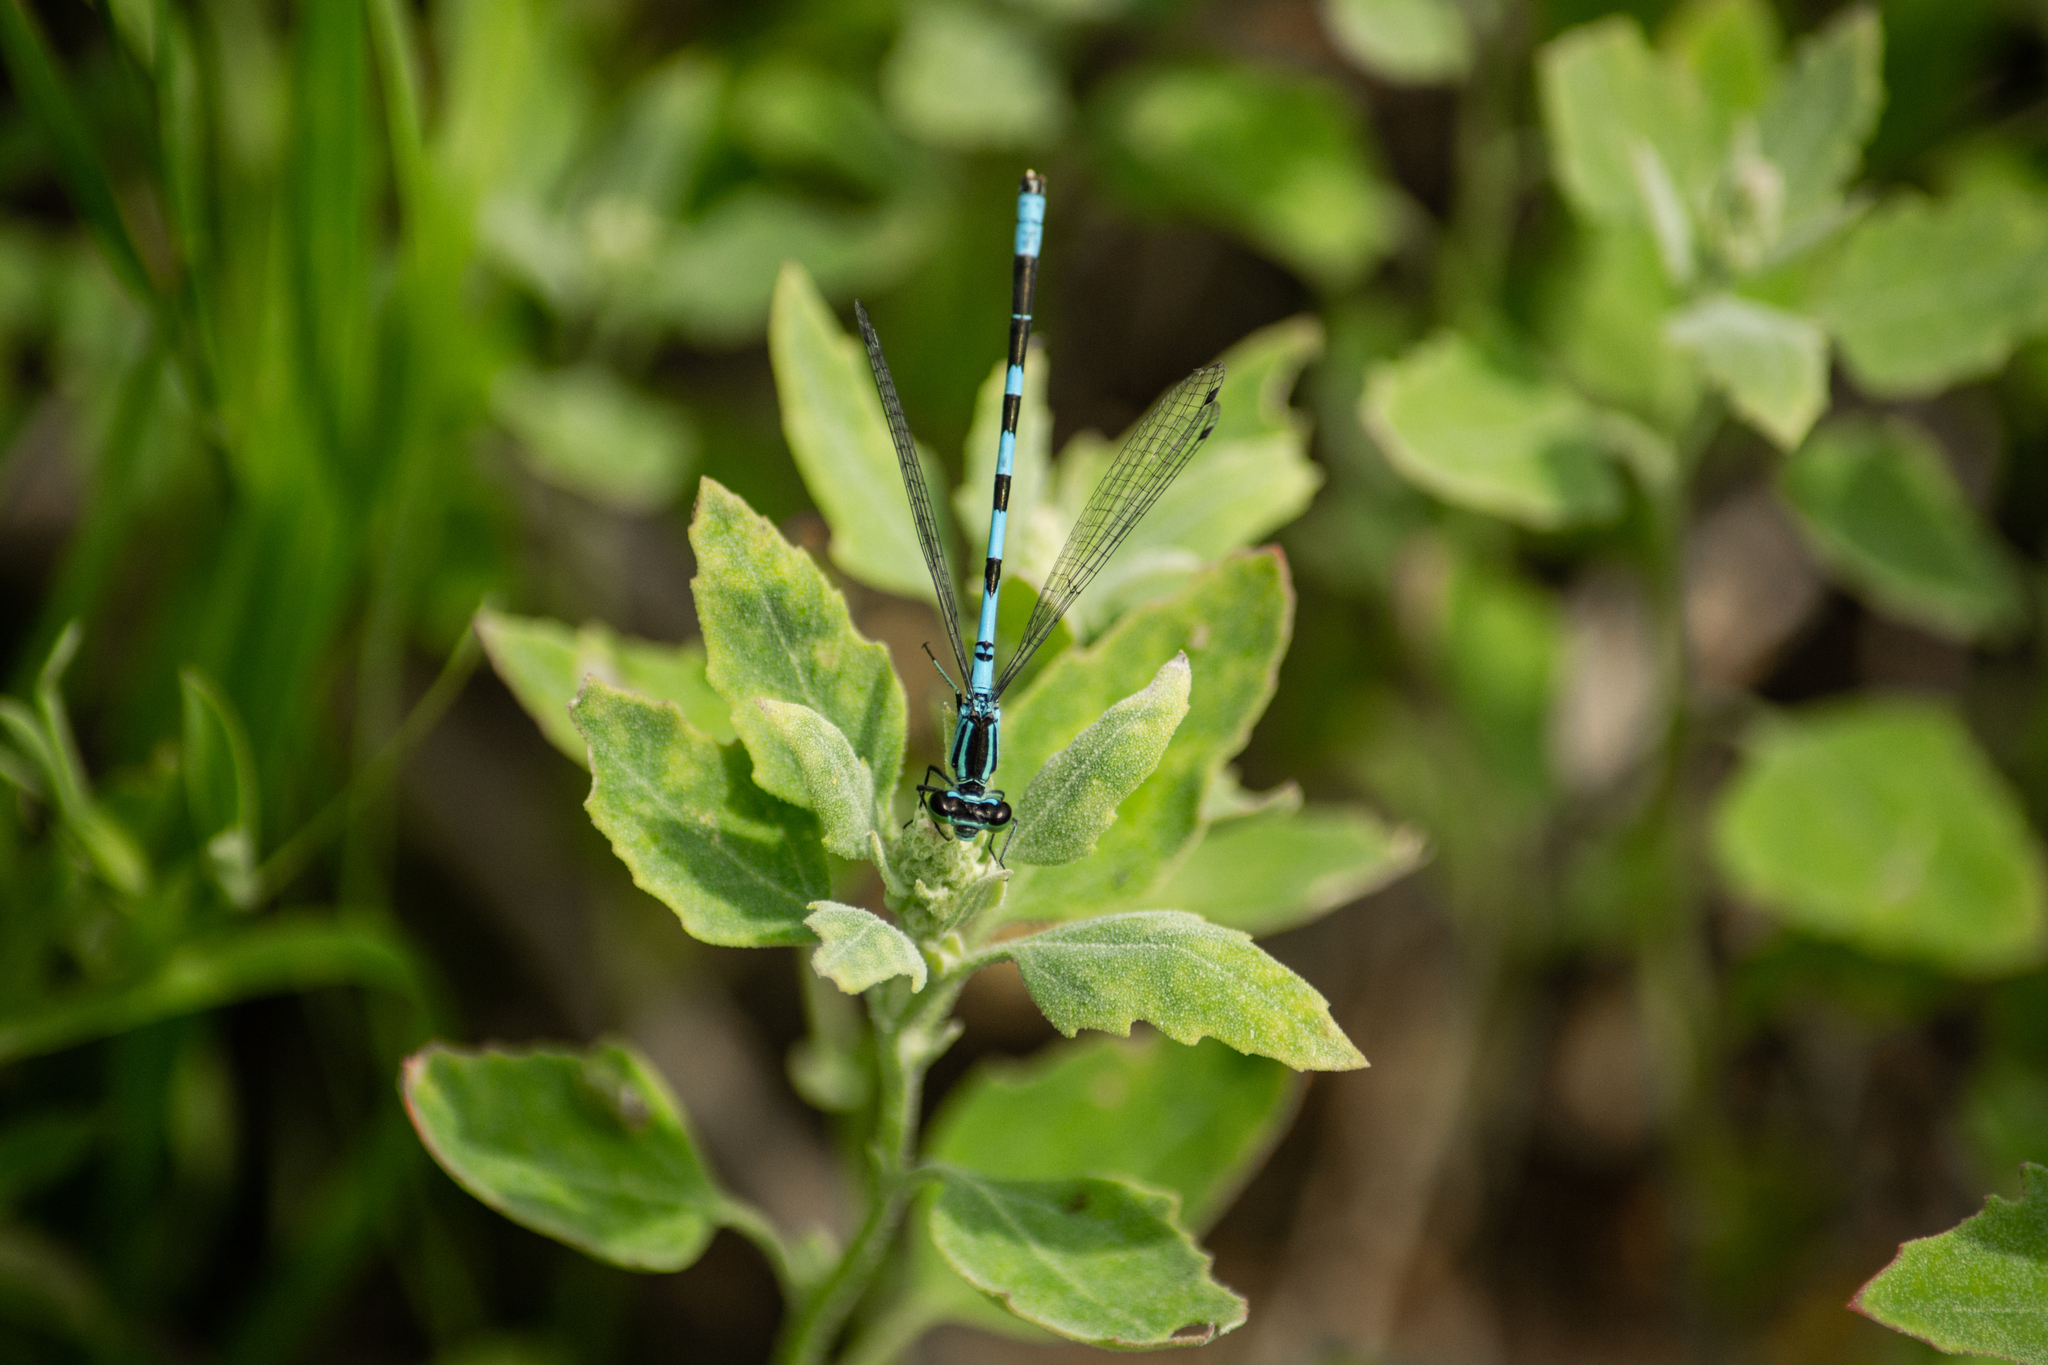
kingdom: Animalia
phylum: Arthropoda
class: Insecta
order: Odonata
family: Coenagrionidae
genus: Coenagrion
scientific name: Coenagrion hastulatum
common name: Spearhead bluet
